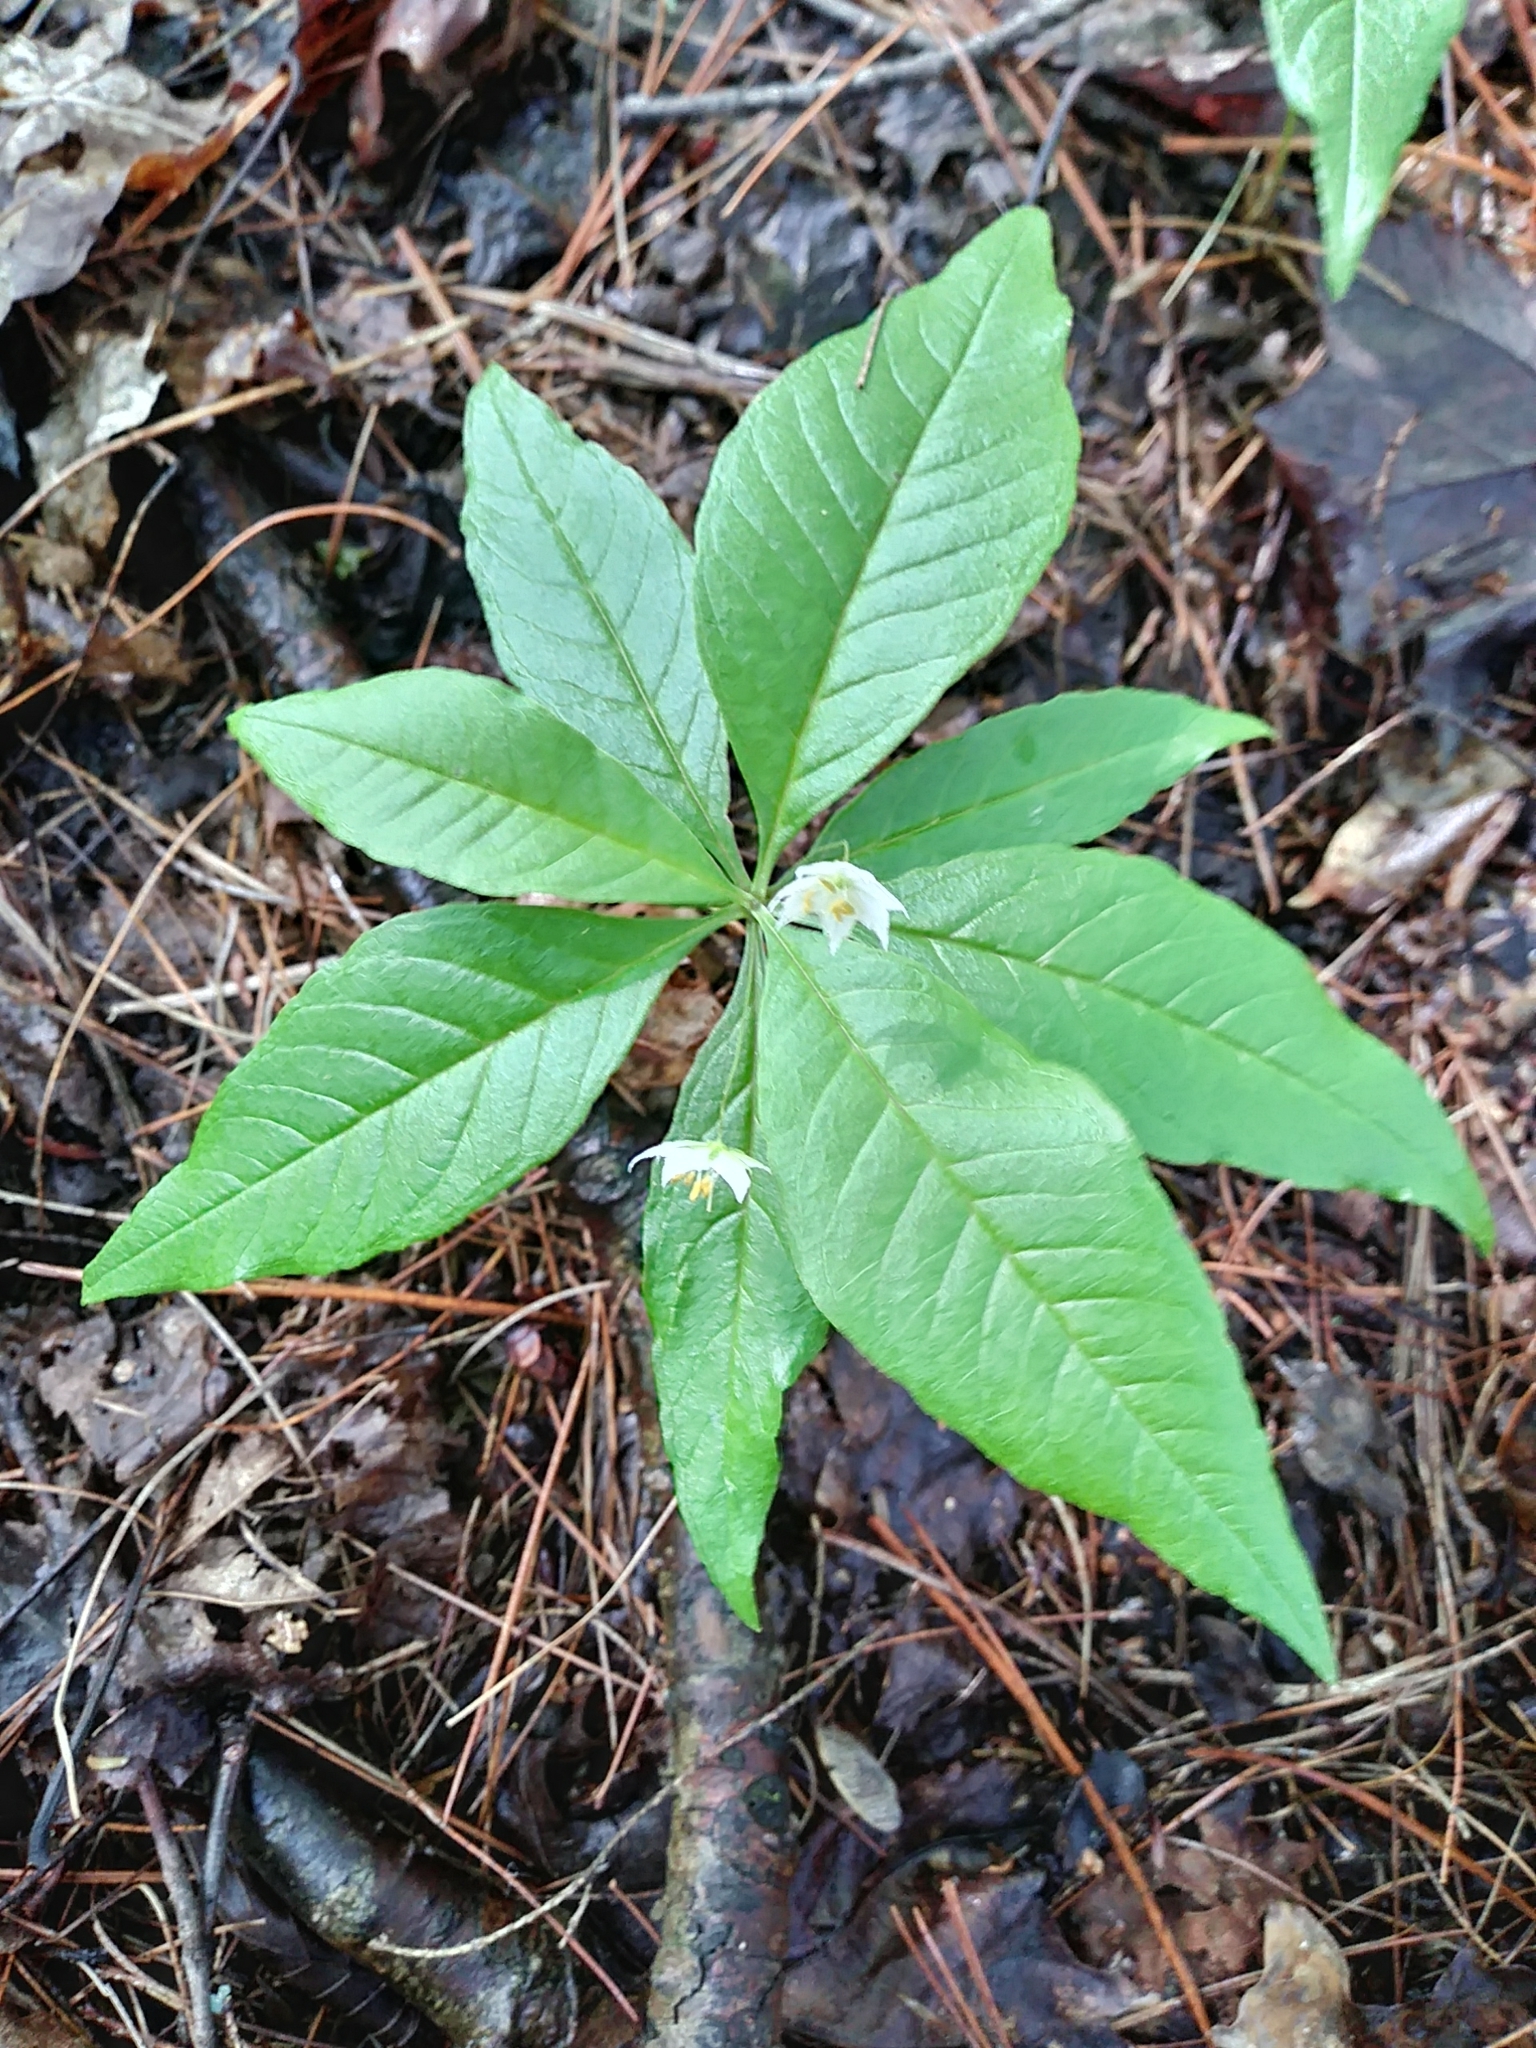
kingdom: Plantae
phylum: Tracheophyta
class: Magnoliopsida
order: Ericales
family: Primulaceae
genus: Lysimachia
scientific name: Lysimachia borealis
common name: American starflower
